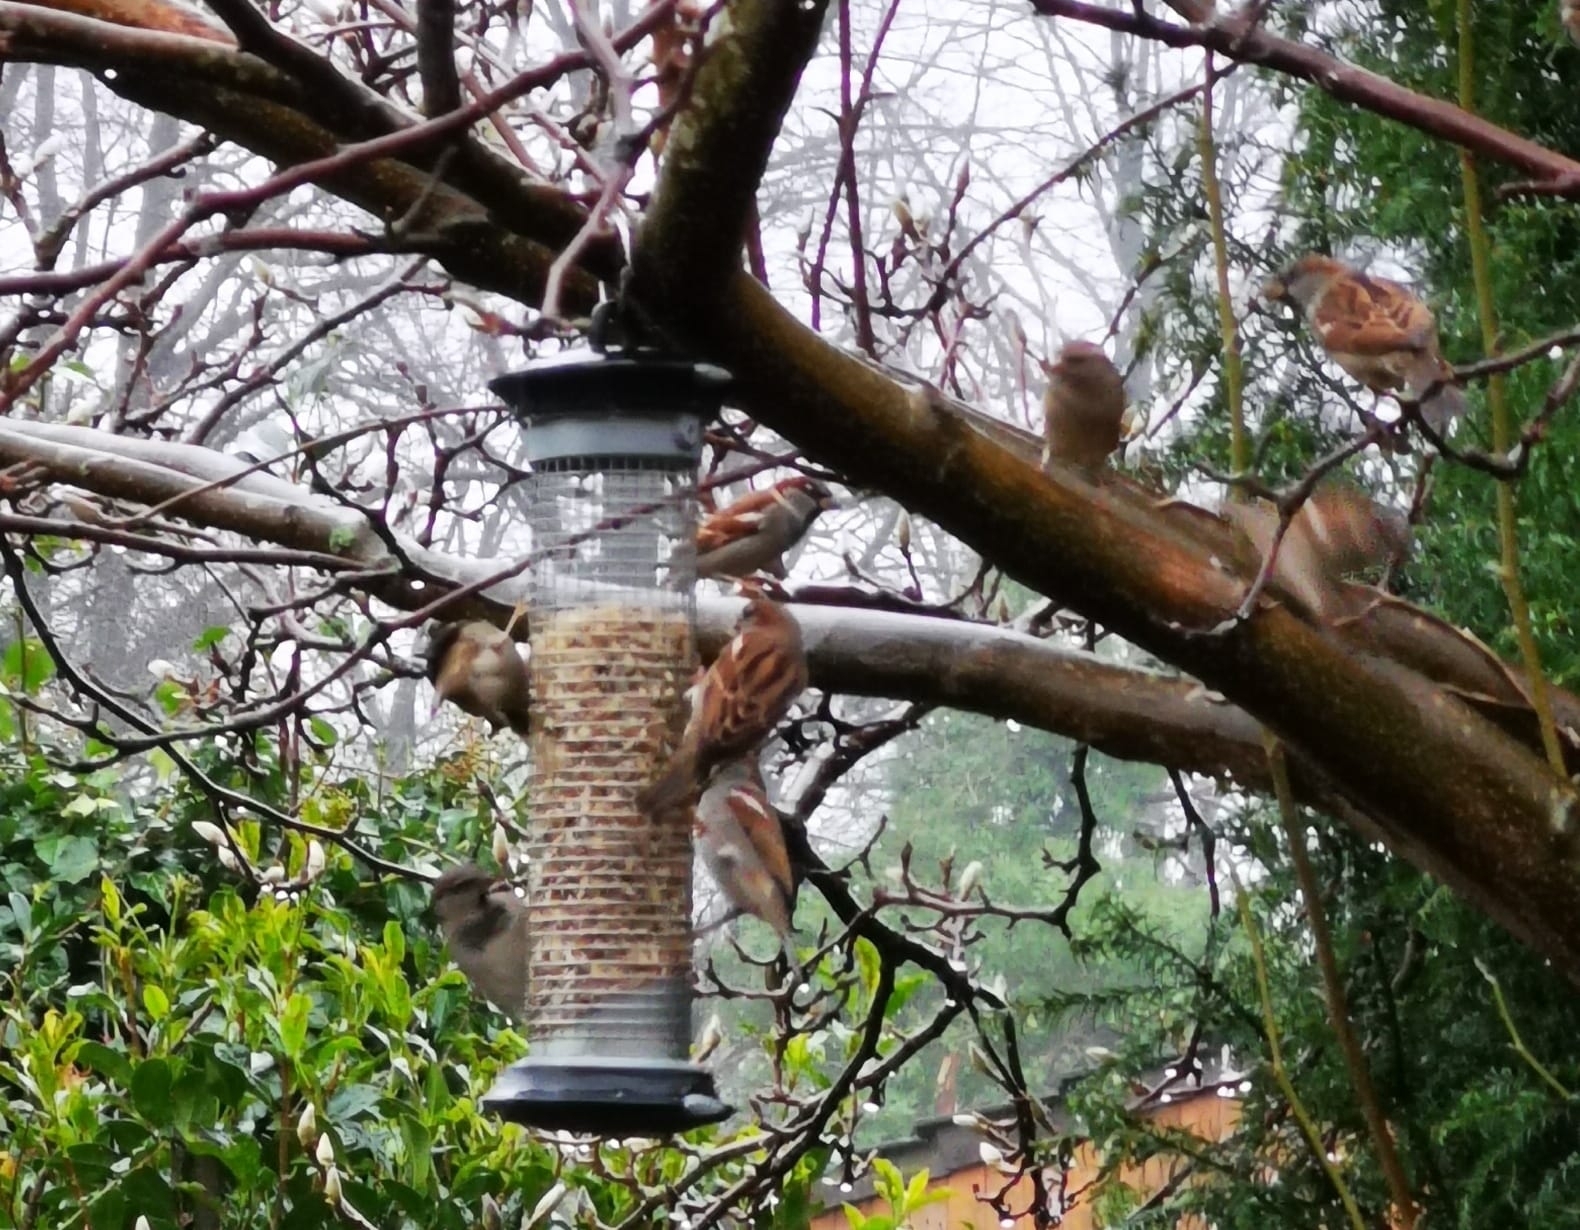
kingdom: Animalia
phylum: Chordata
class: Aves
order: Passeriformes
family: Passeridae
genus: Passer
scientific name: Passer domesticus
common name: House sparrow
